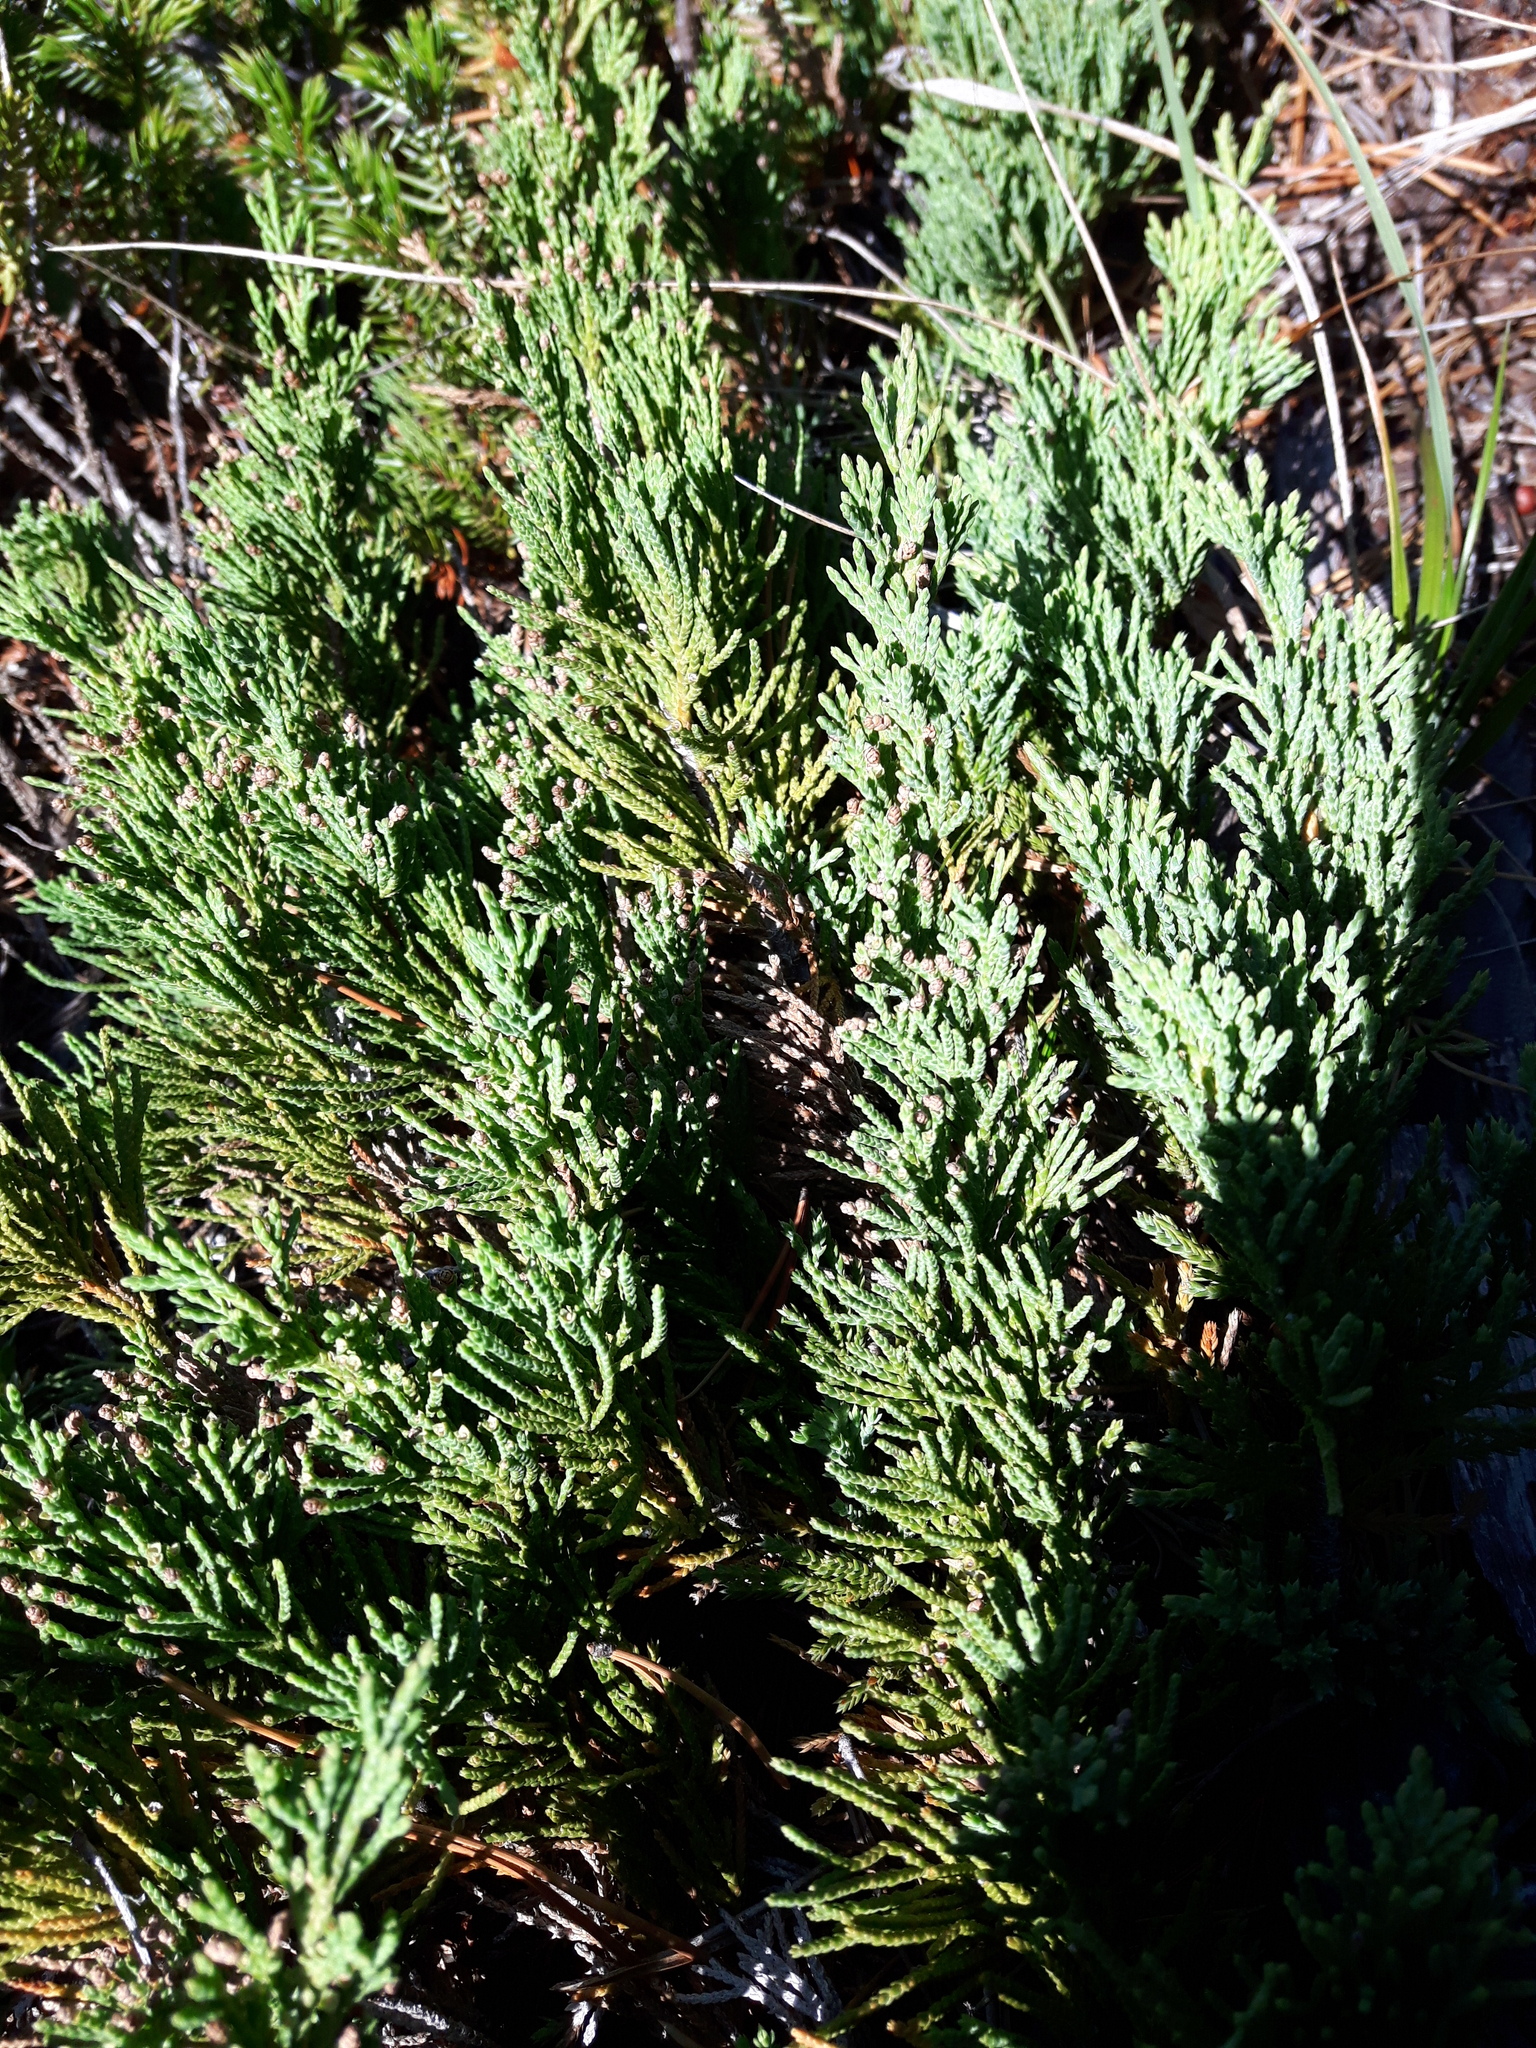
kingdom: Plantae
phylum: Tracheophyta
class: Pinopsida
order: Pinales
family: Cupressaceae
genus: Juniperus
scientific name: Juniperus horizontalis
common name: Creeping juniper
